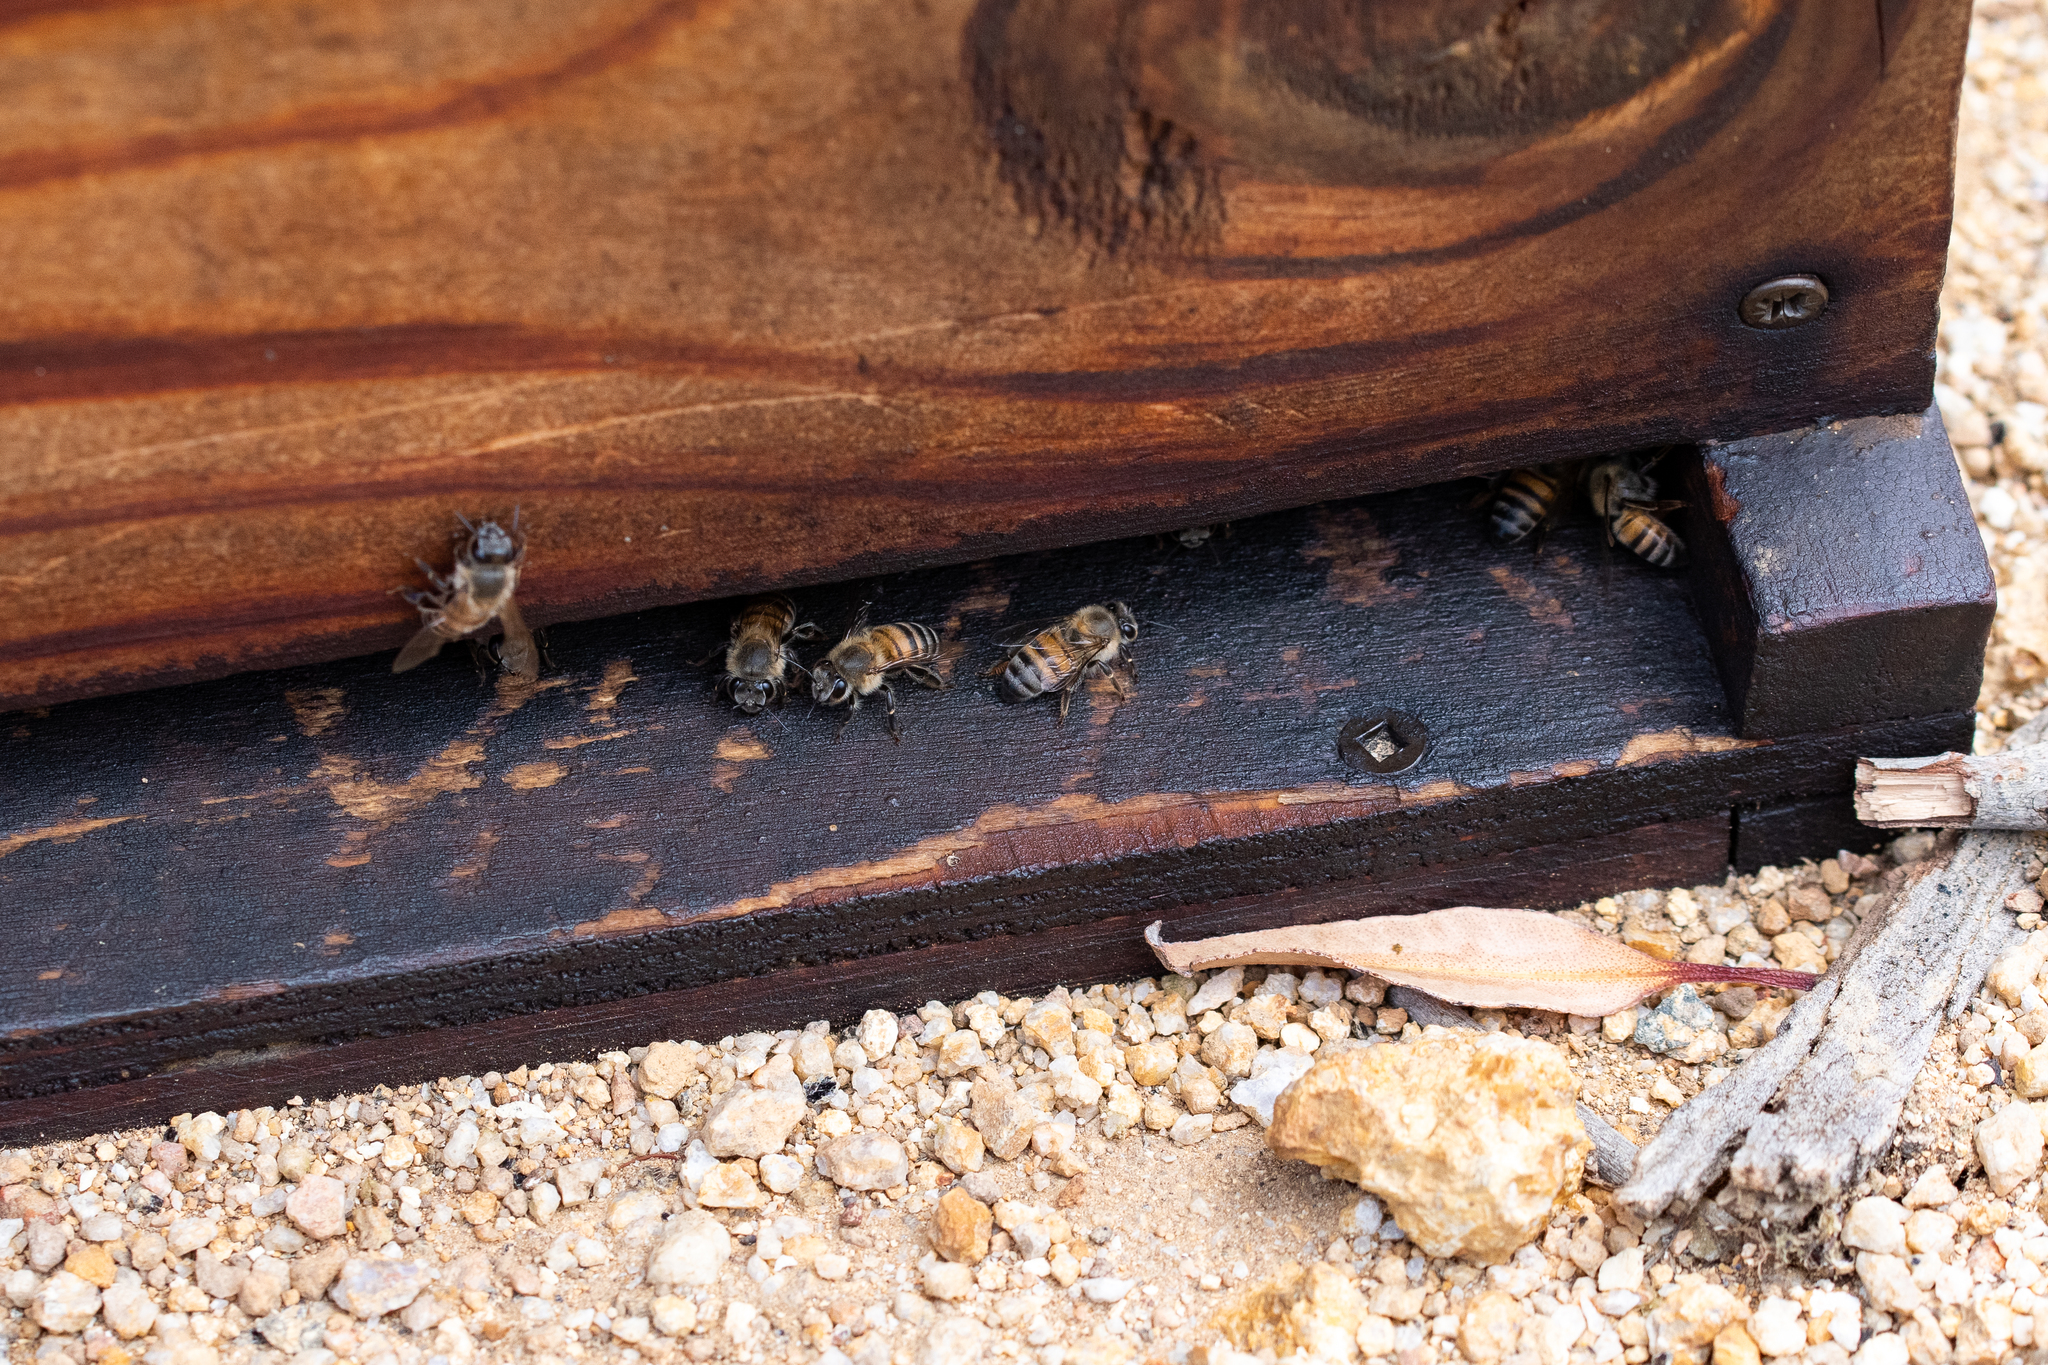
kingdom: Animalia
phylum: Arthropoda
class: Insecta
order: Hymenoptera
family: Apidae
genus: Apis
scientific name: Apis mellifera
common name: Honey bee
